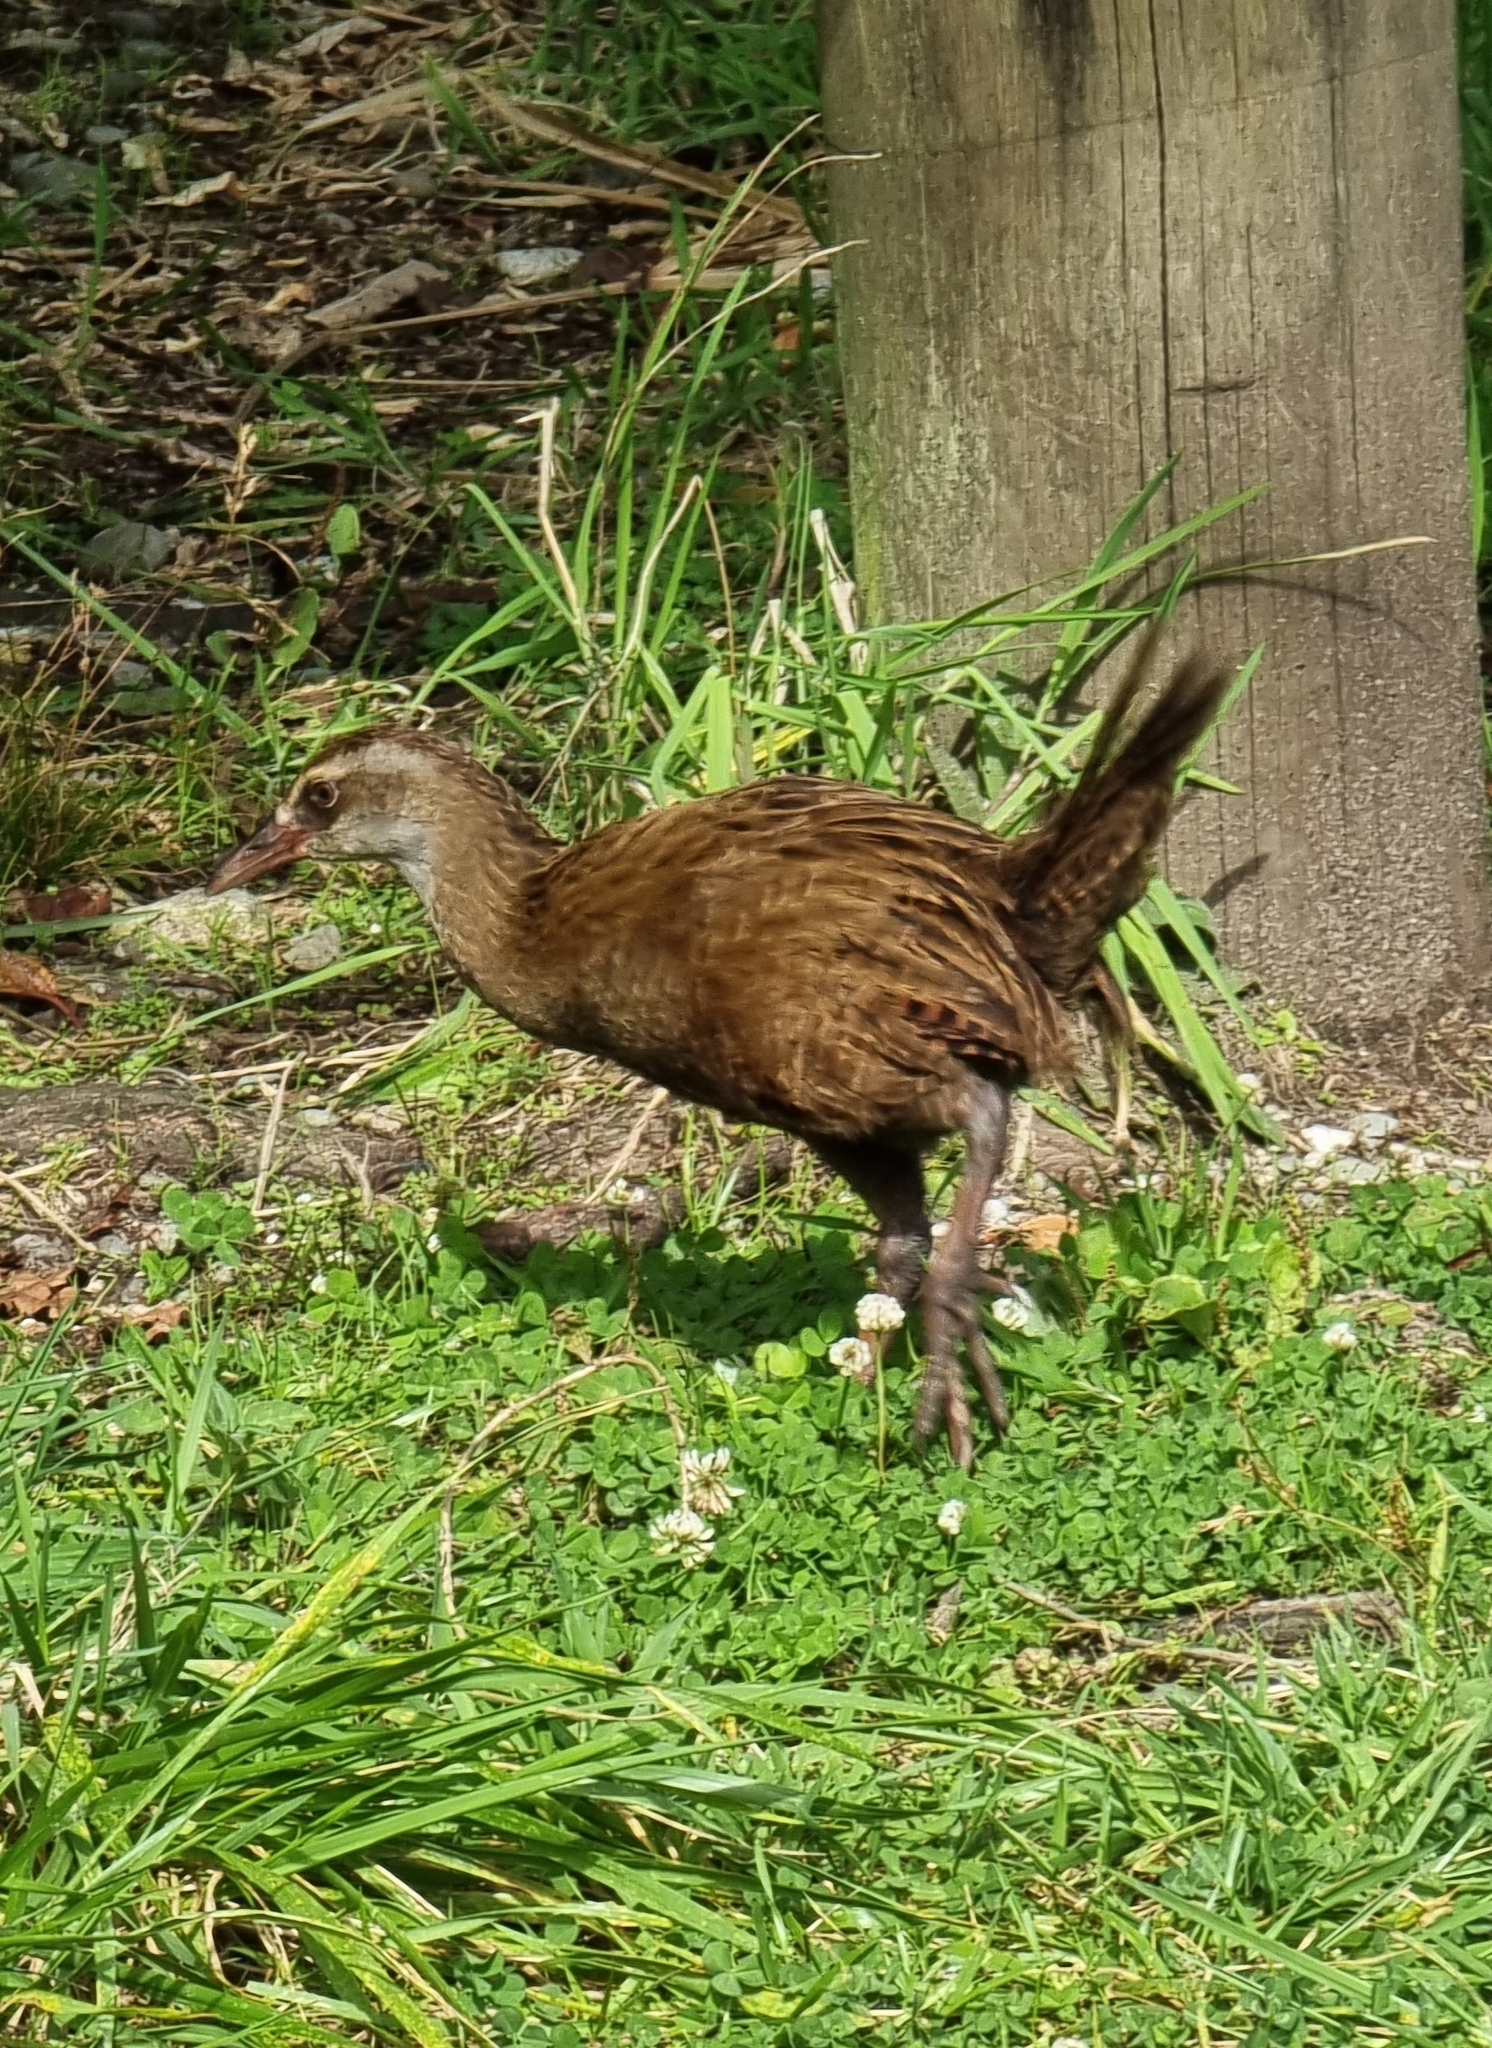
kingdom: Animalia
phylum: Chordata
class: Aves
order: Gruiformes
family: Rallidae
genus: Gallirallus
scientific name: Gallirallus australis
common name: Weka
